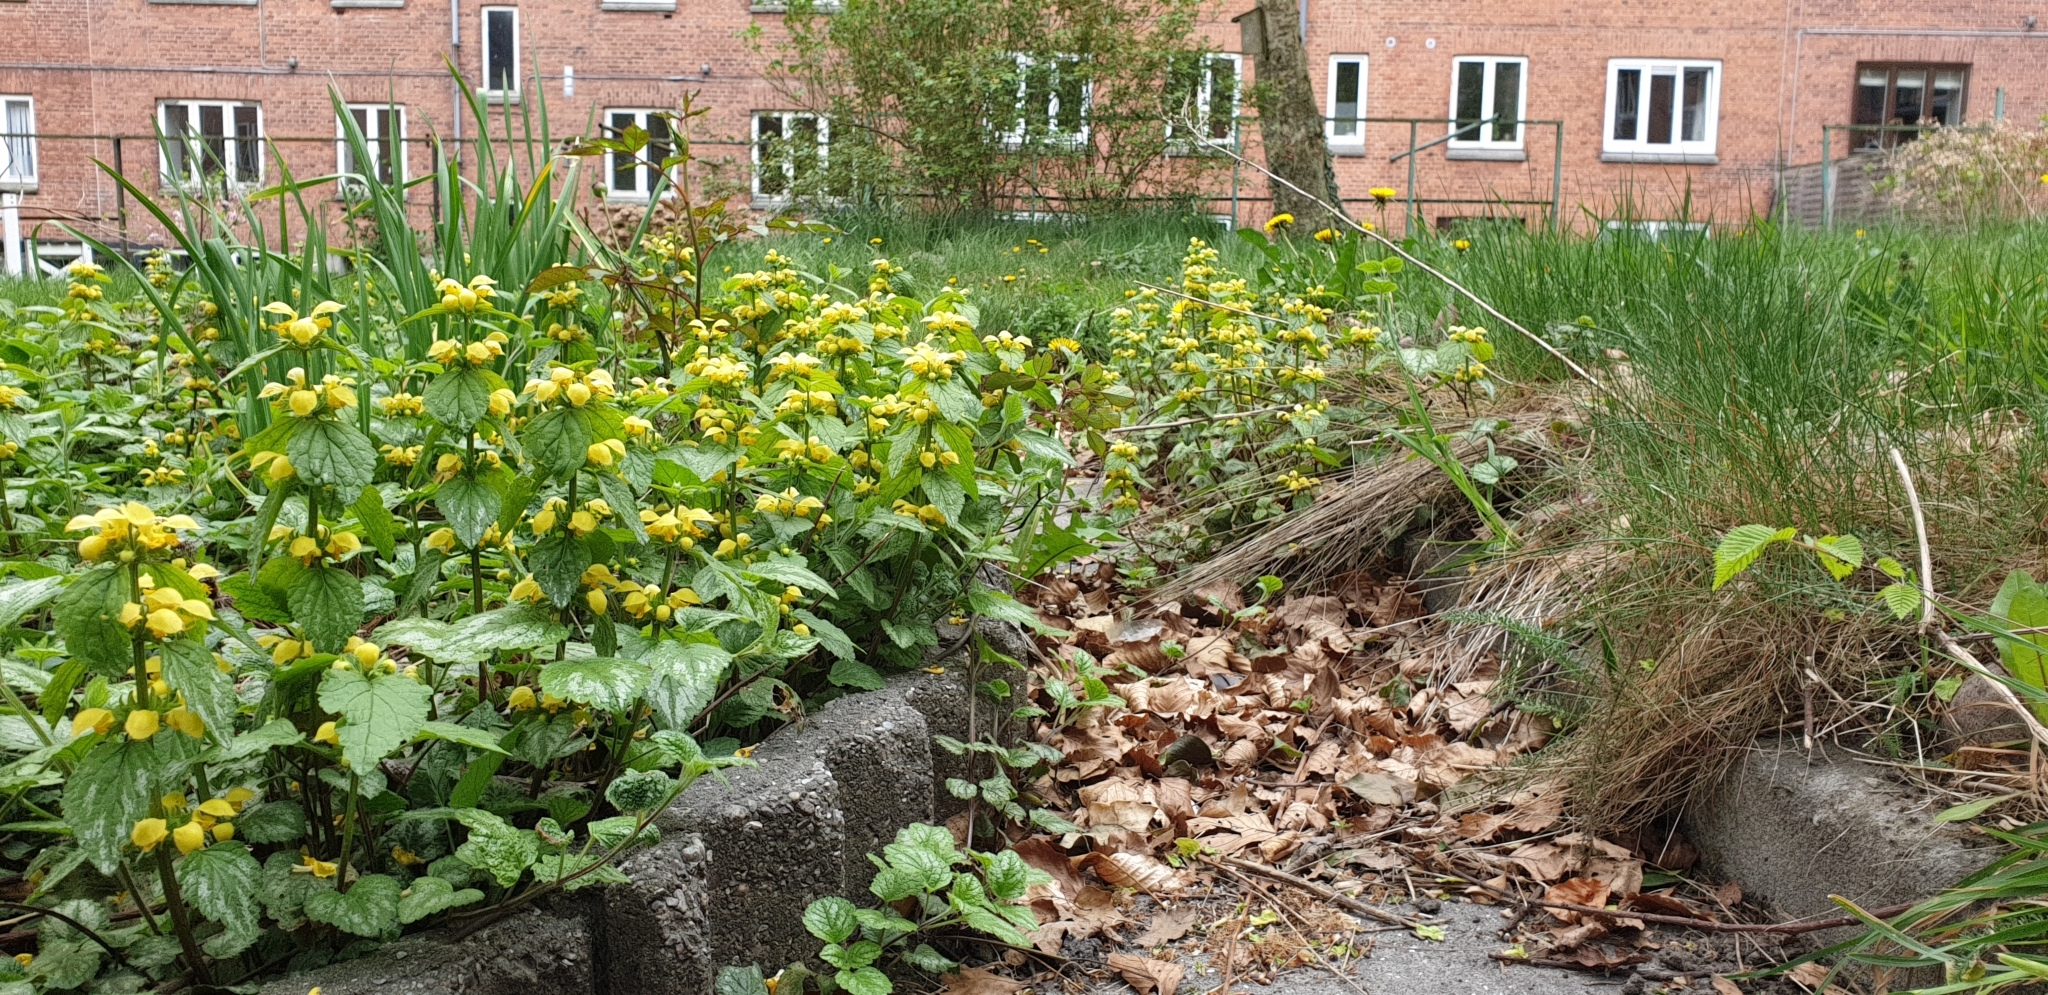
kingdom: Plantae
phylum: Tracheophyta
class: Magnoliopsida
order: Lamiales
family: Lamiaceae
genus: Lamium
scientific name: Lamium galeobdolon
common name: Yellow archangel
